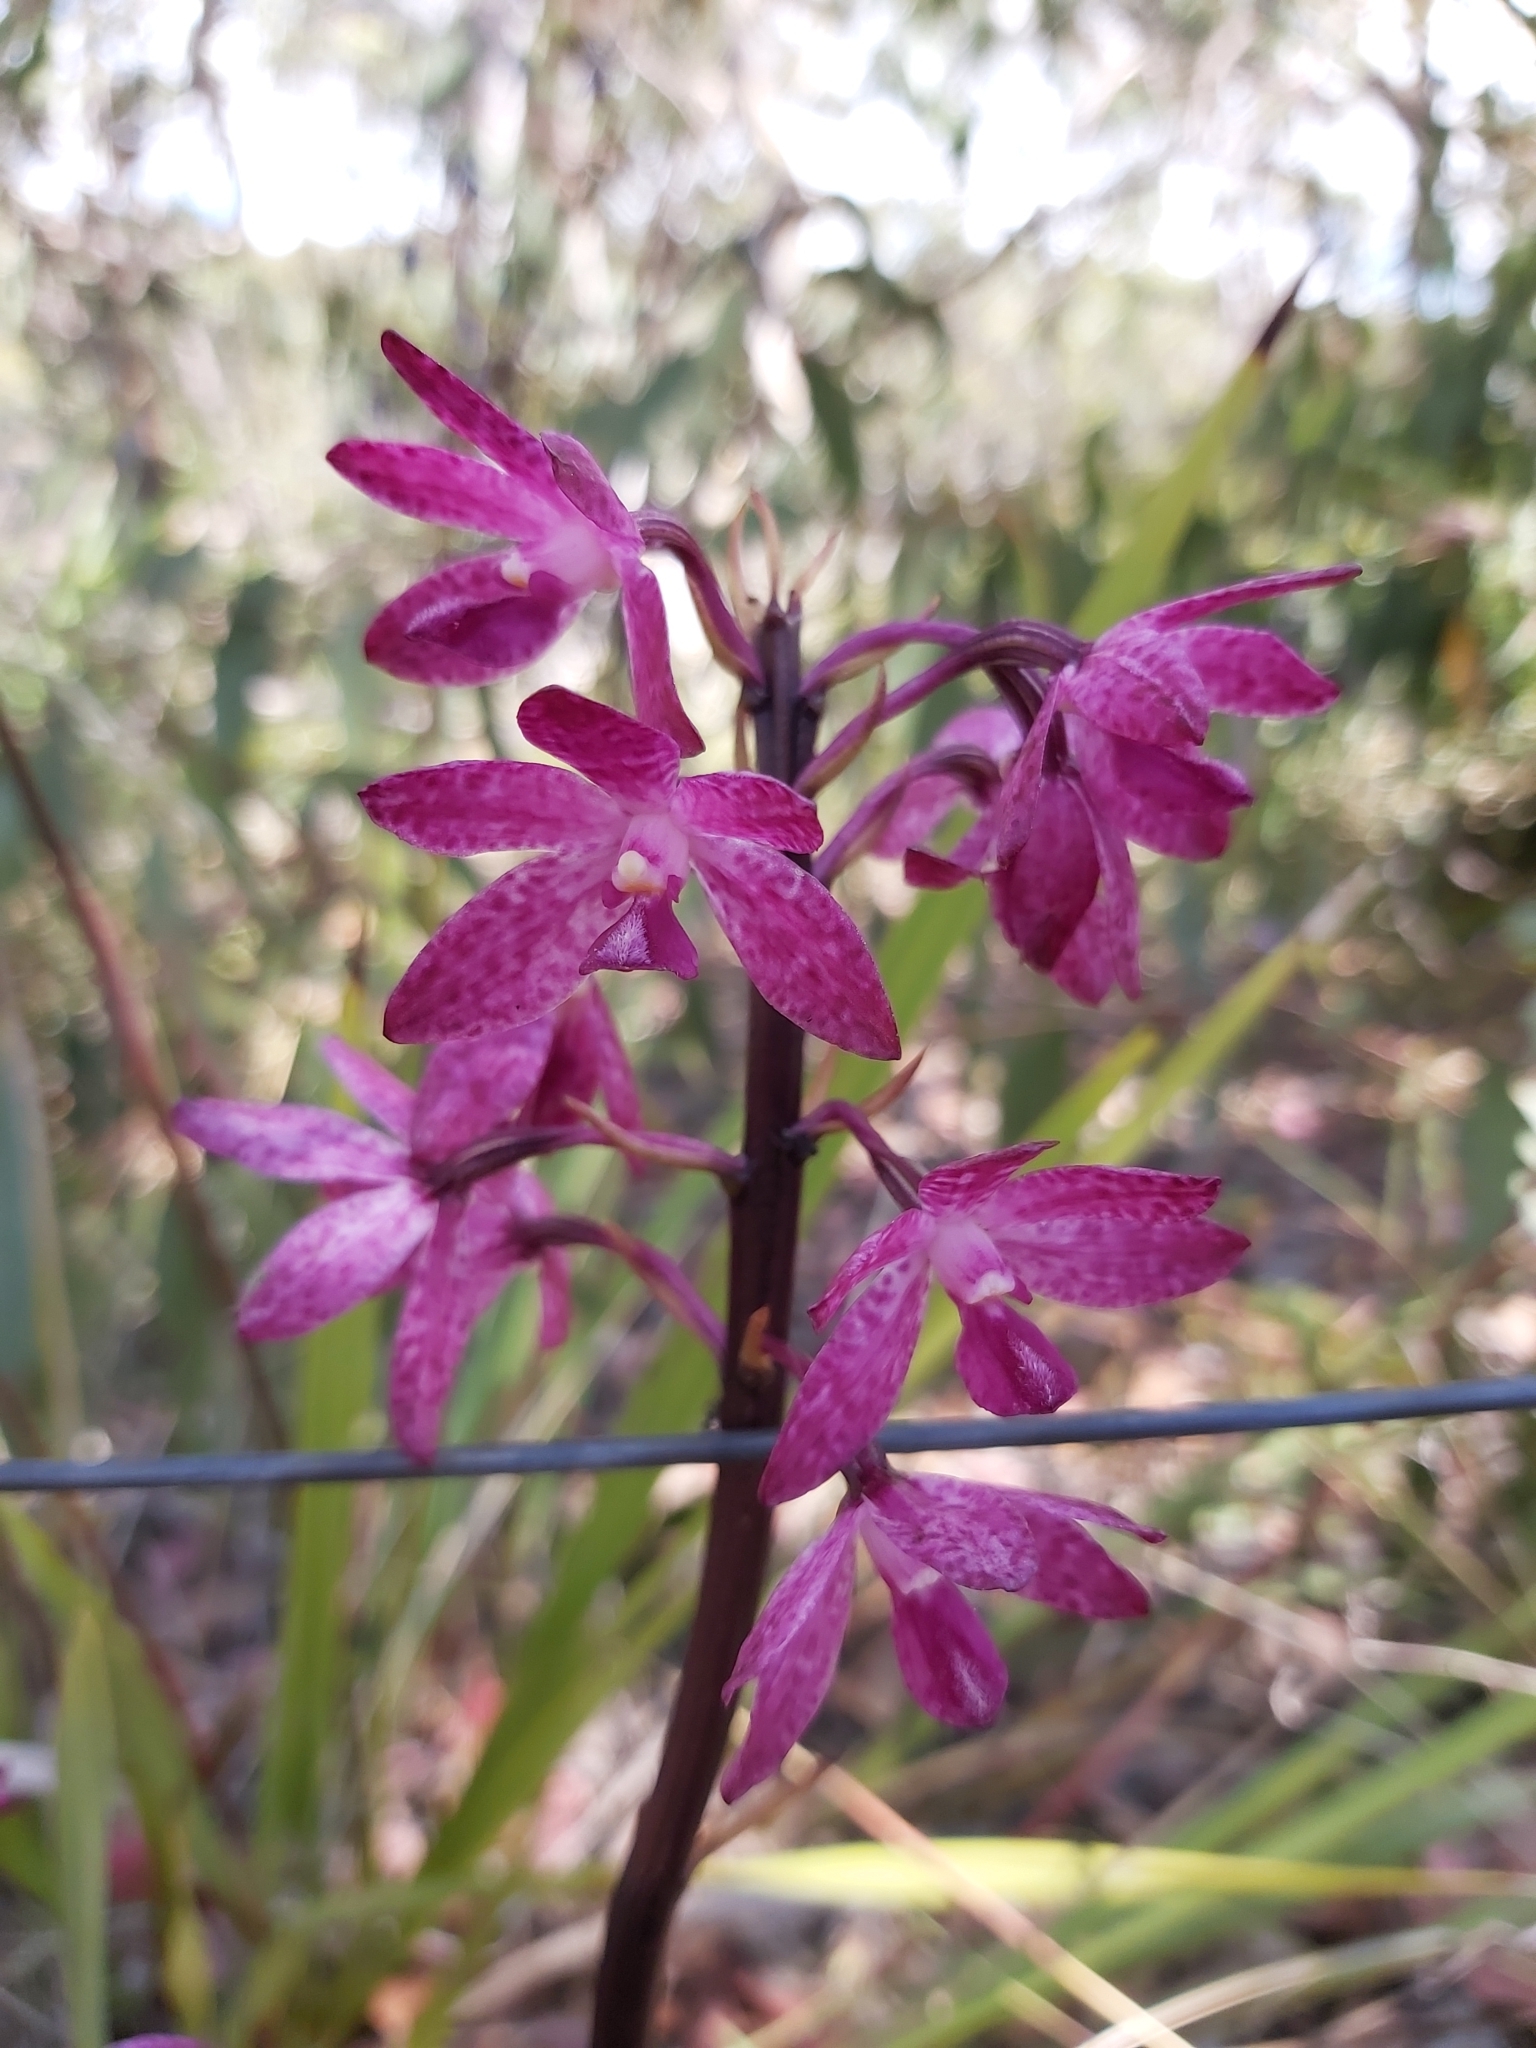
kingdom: Plantae
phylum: Tracheophyta
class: Liliopsida
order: Asparagales
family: Orchidaceae
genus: Dipodium
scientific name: Dipodium squamatum
